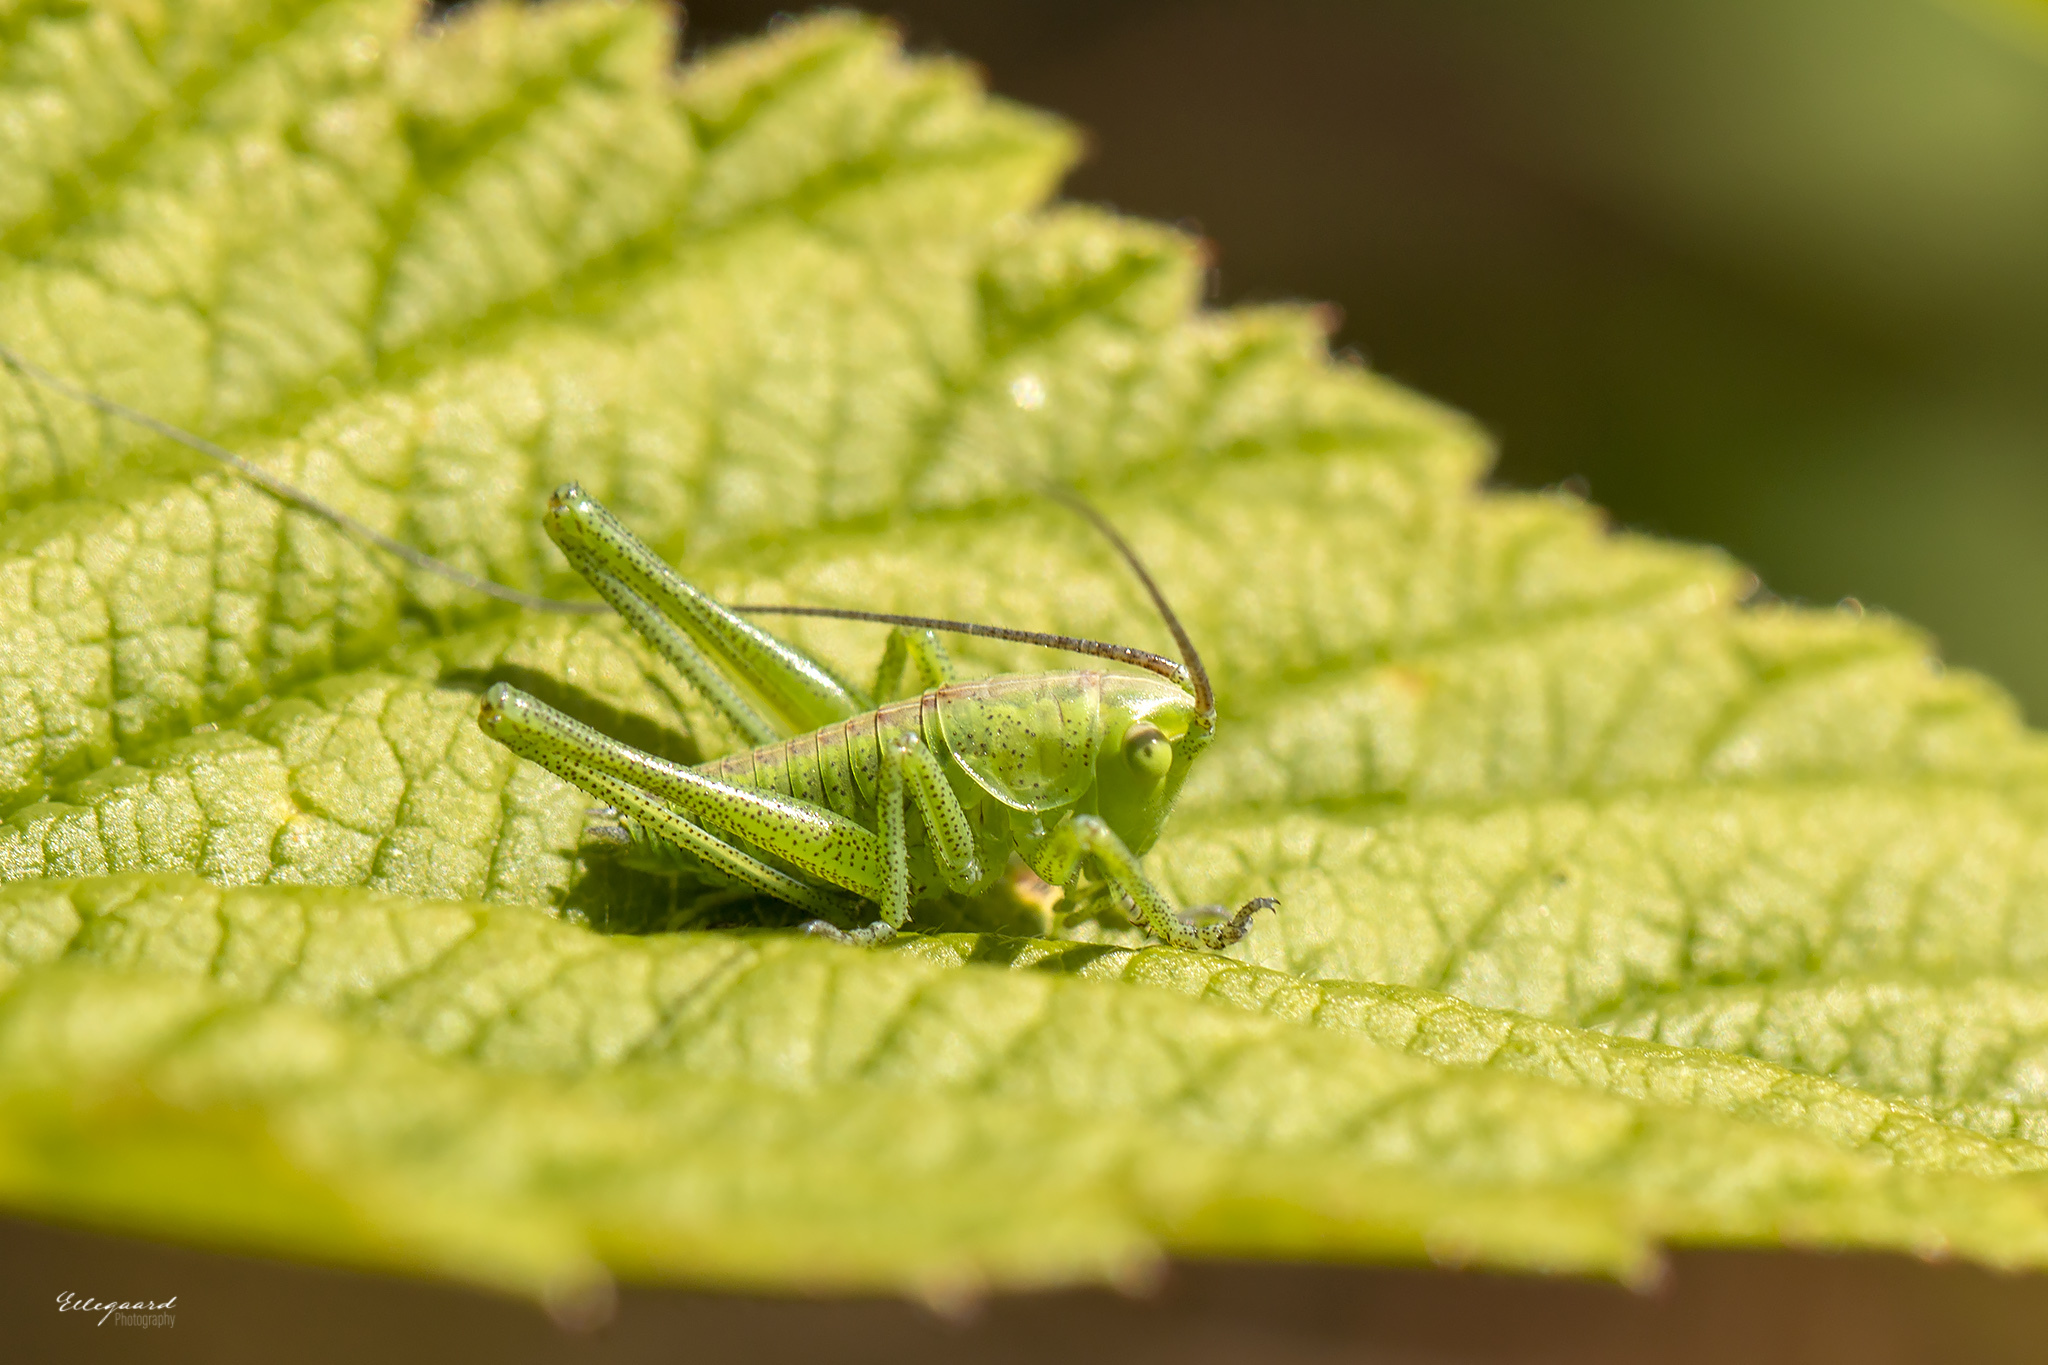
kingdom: Animalia
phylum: Arthropoda
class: Insecta
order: Orthoptera
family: Tettigoniidae
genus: Tettigonia
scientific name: Tettigonia viridissima
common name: Great green bush-cricket
